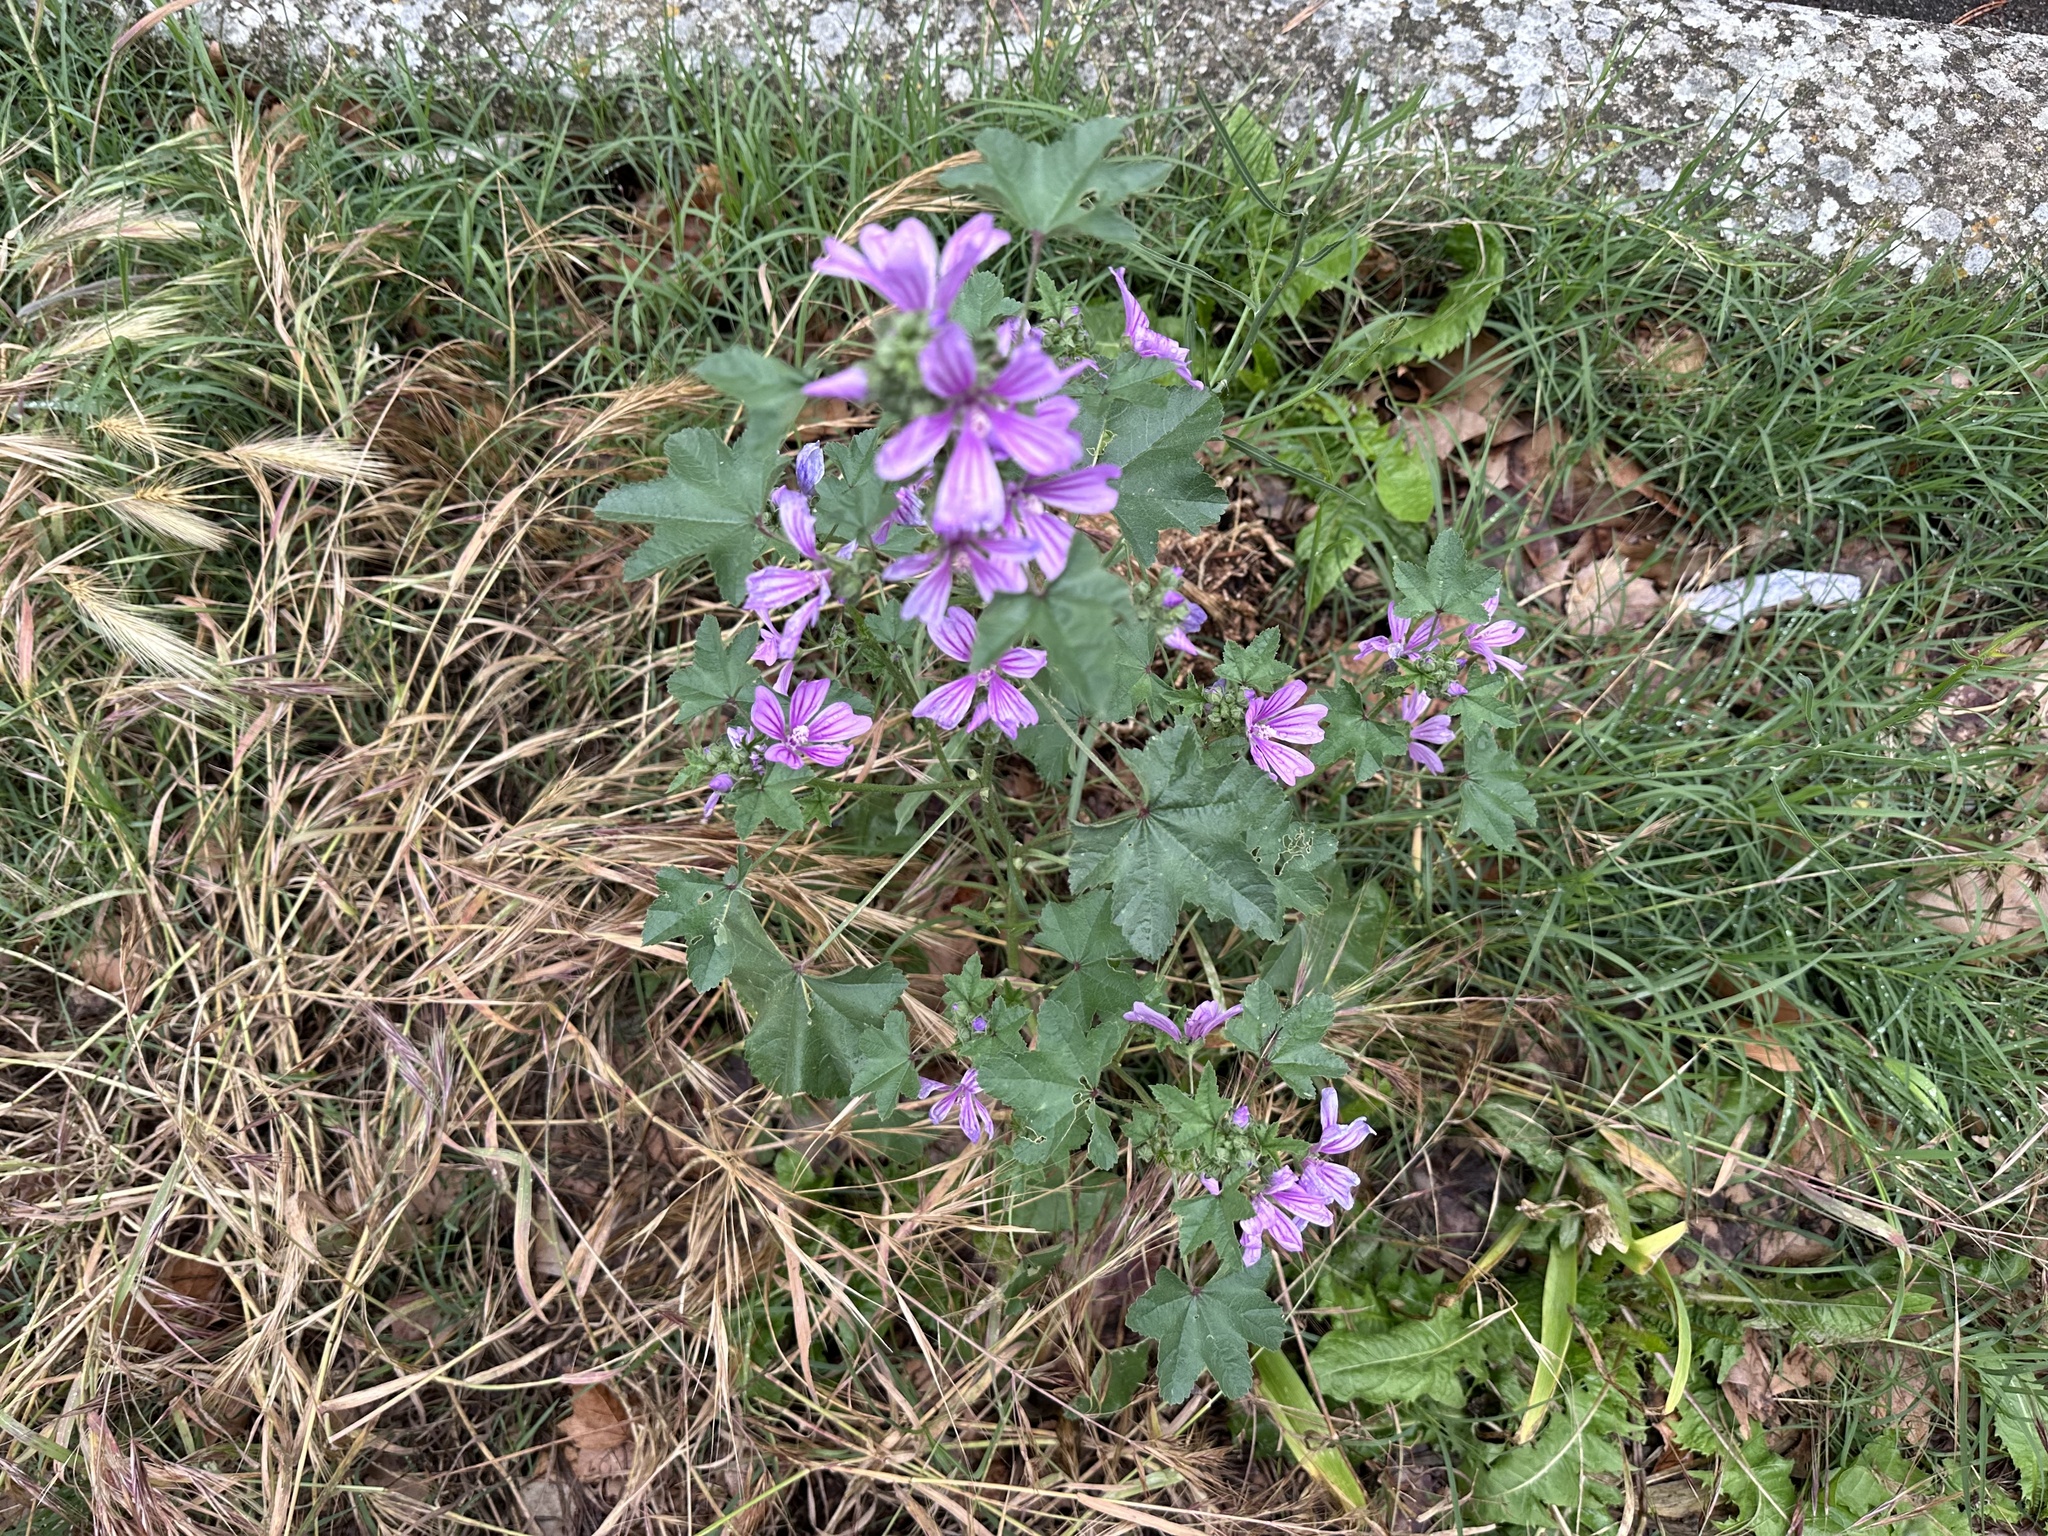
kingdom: Plantae
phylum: Tracheophyta
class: Magnoliopsida
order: Malvales
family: Malvaceae
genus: Malva
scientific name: Malva sylvestris
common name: Common mallow
